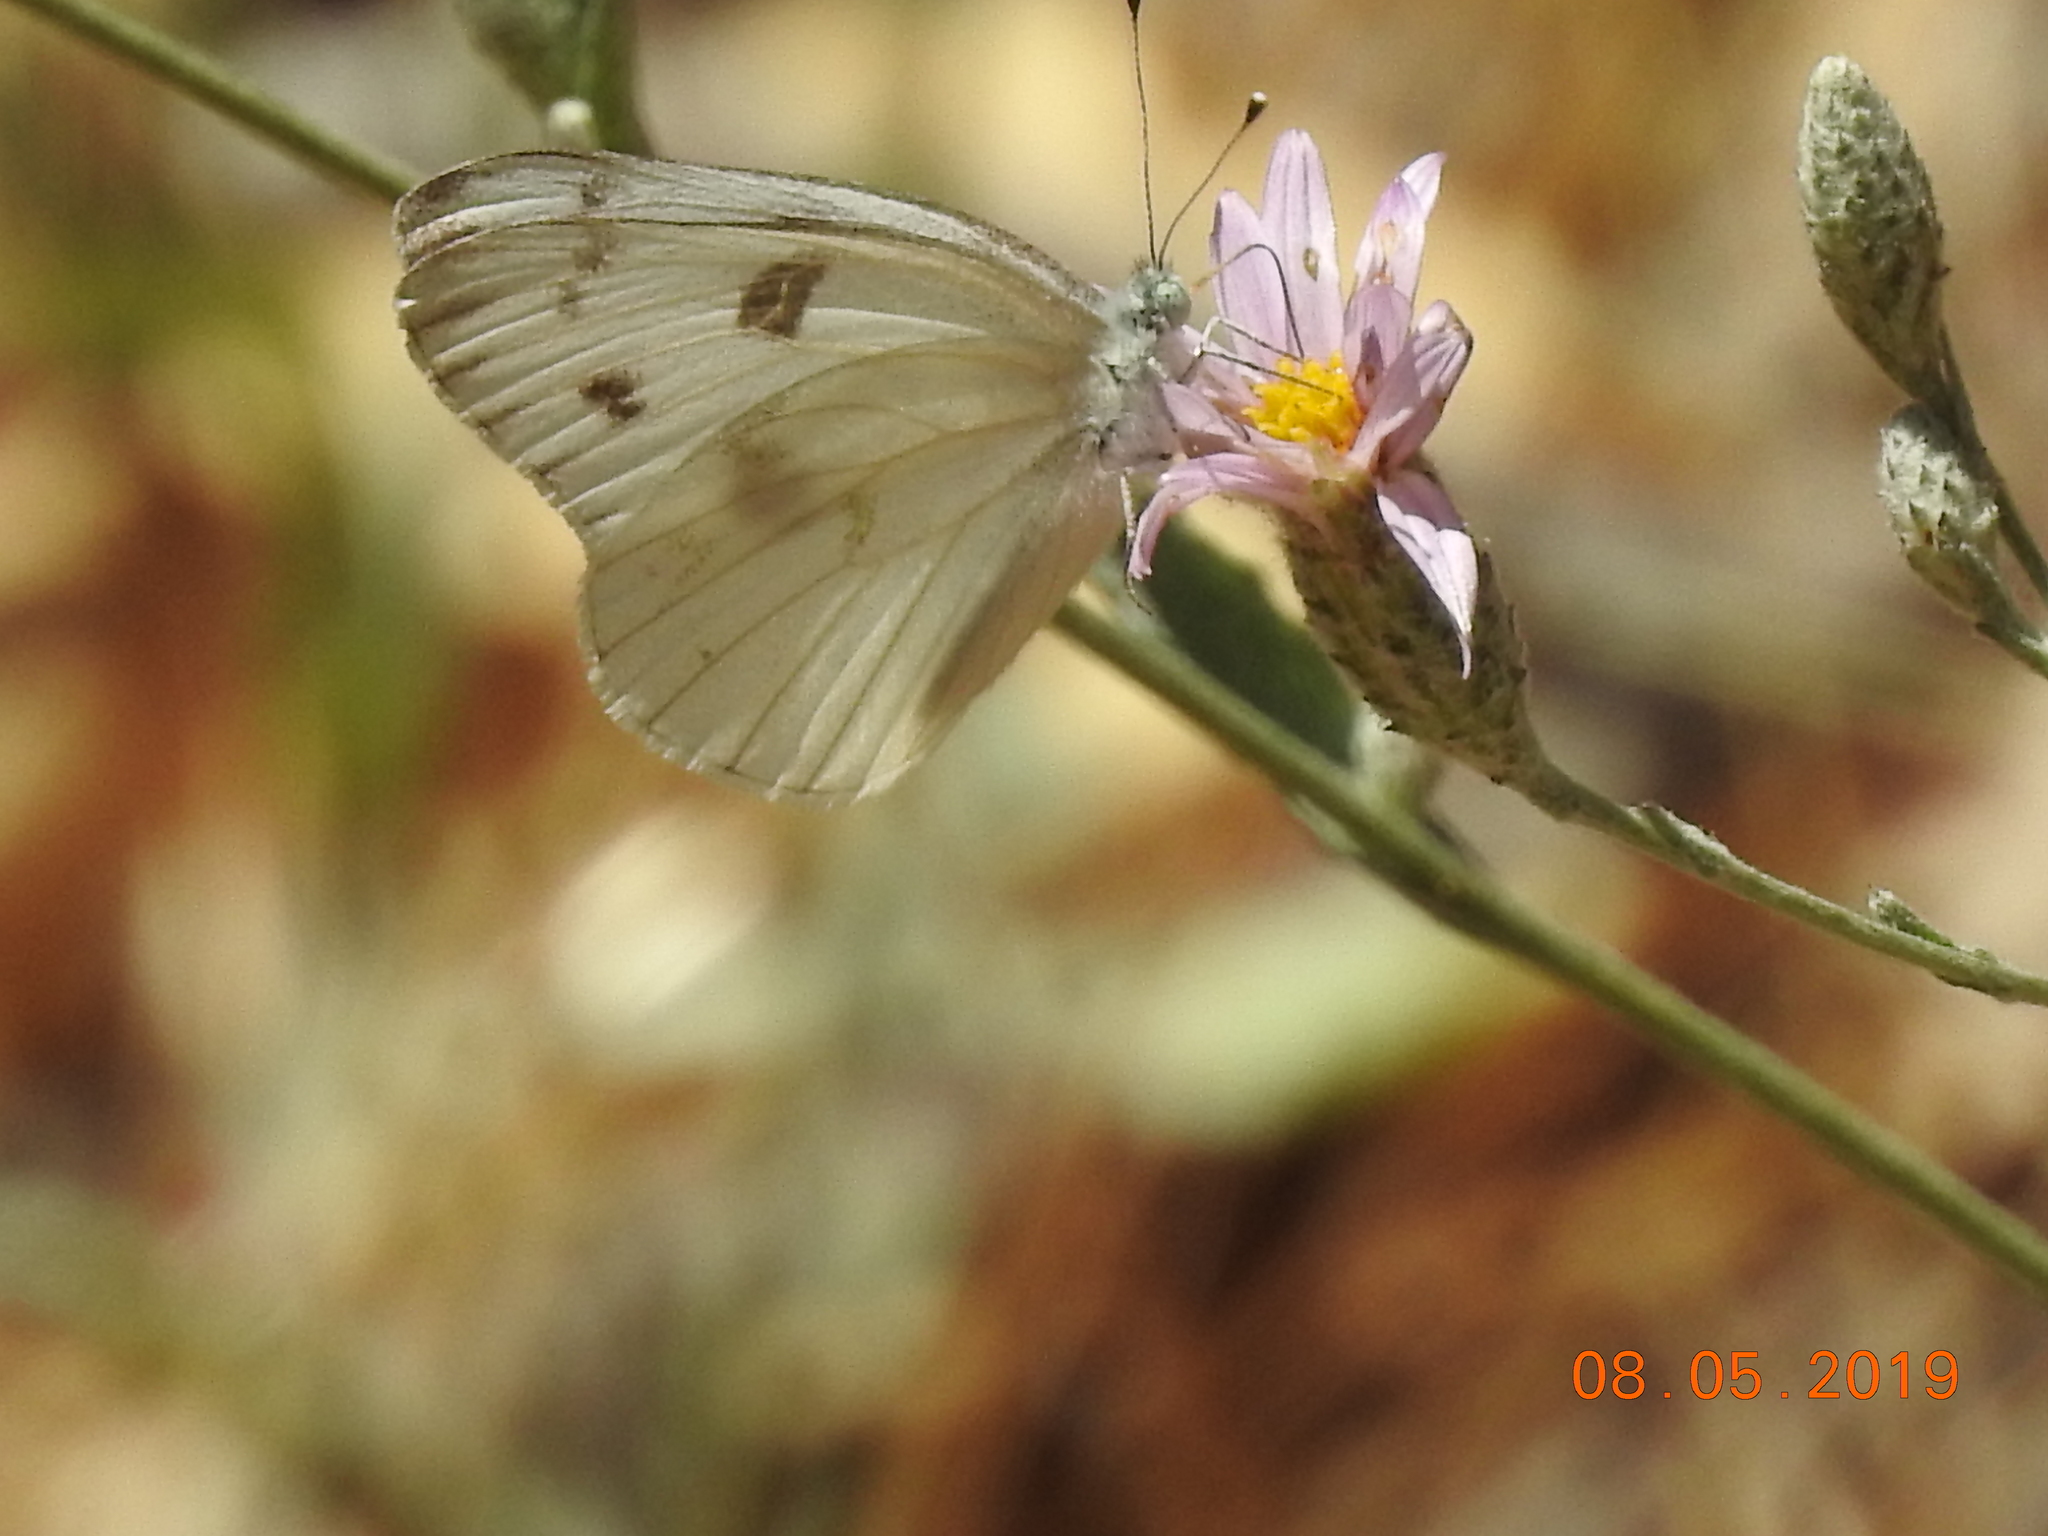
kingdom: Animalia
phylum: Arthropoda
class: Insecta
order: Lepidoptera
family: Pieridae
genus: Pontia
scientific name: Pontia protodice
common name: Checkered white
